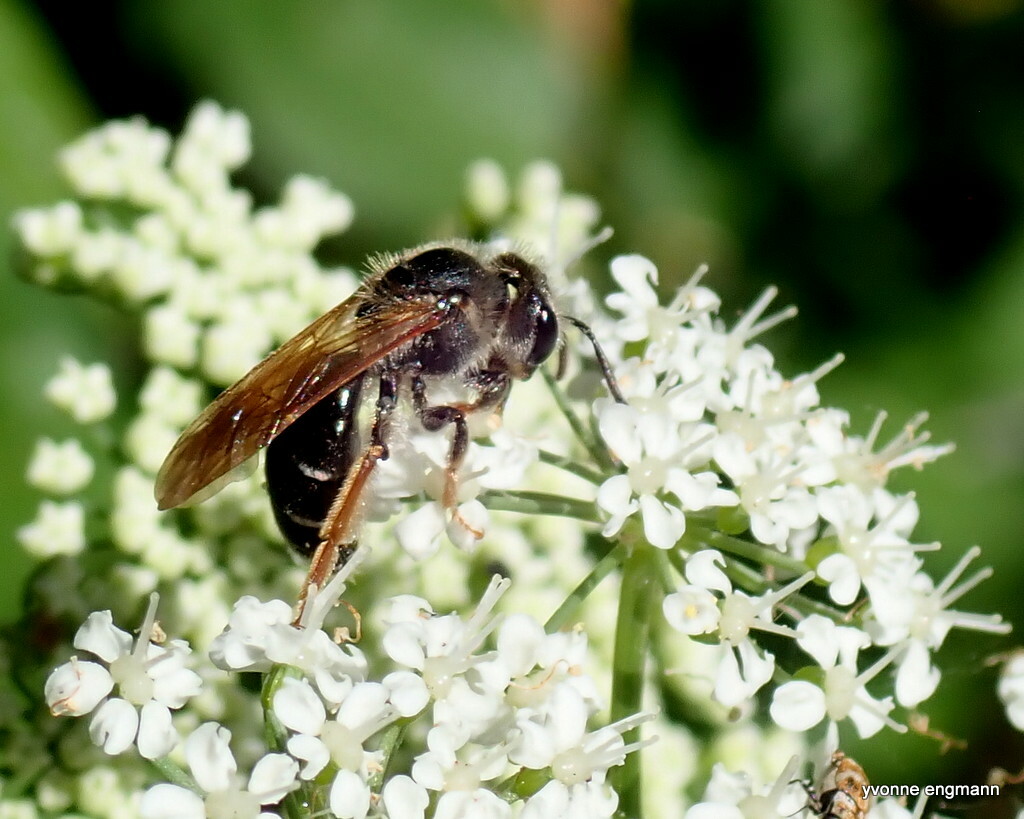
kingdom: Animalia
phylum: Arthropoda
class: Insecta
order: Hymenoptera
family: Andrenidae
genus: Andrena
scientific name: Andrena chrysosceles
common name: Hawthorne mining bee
